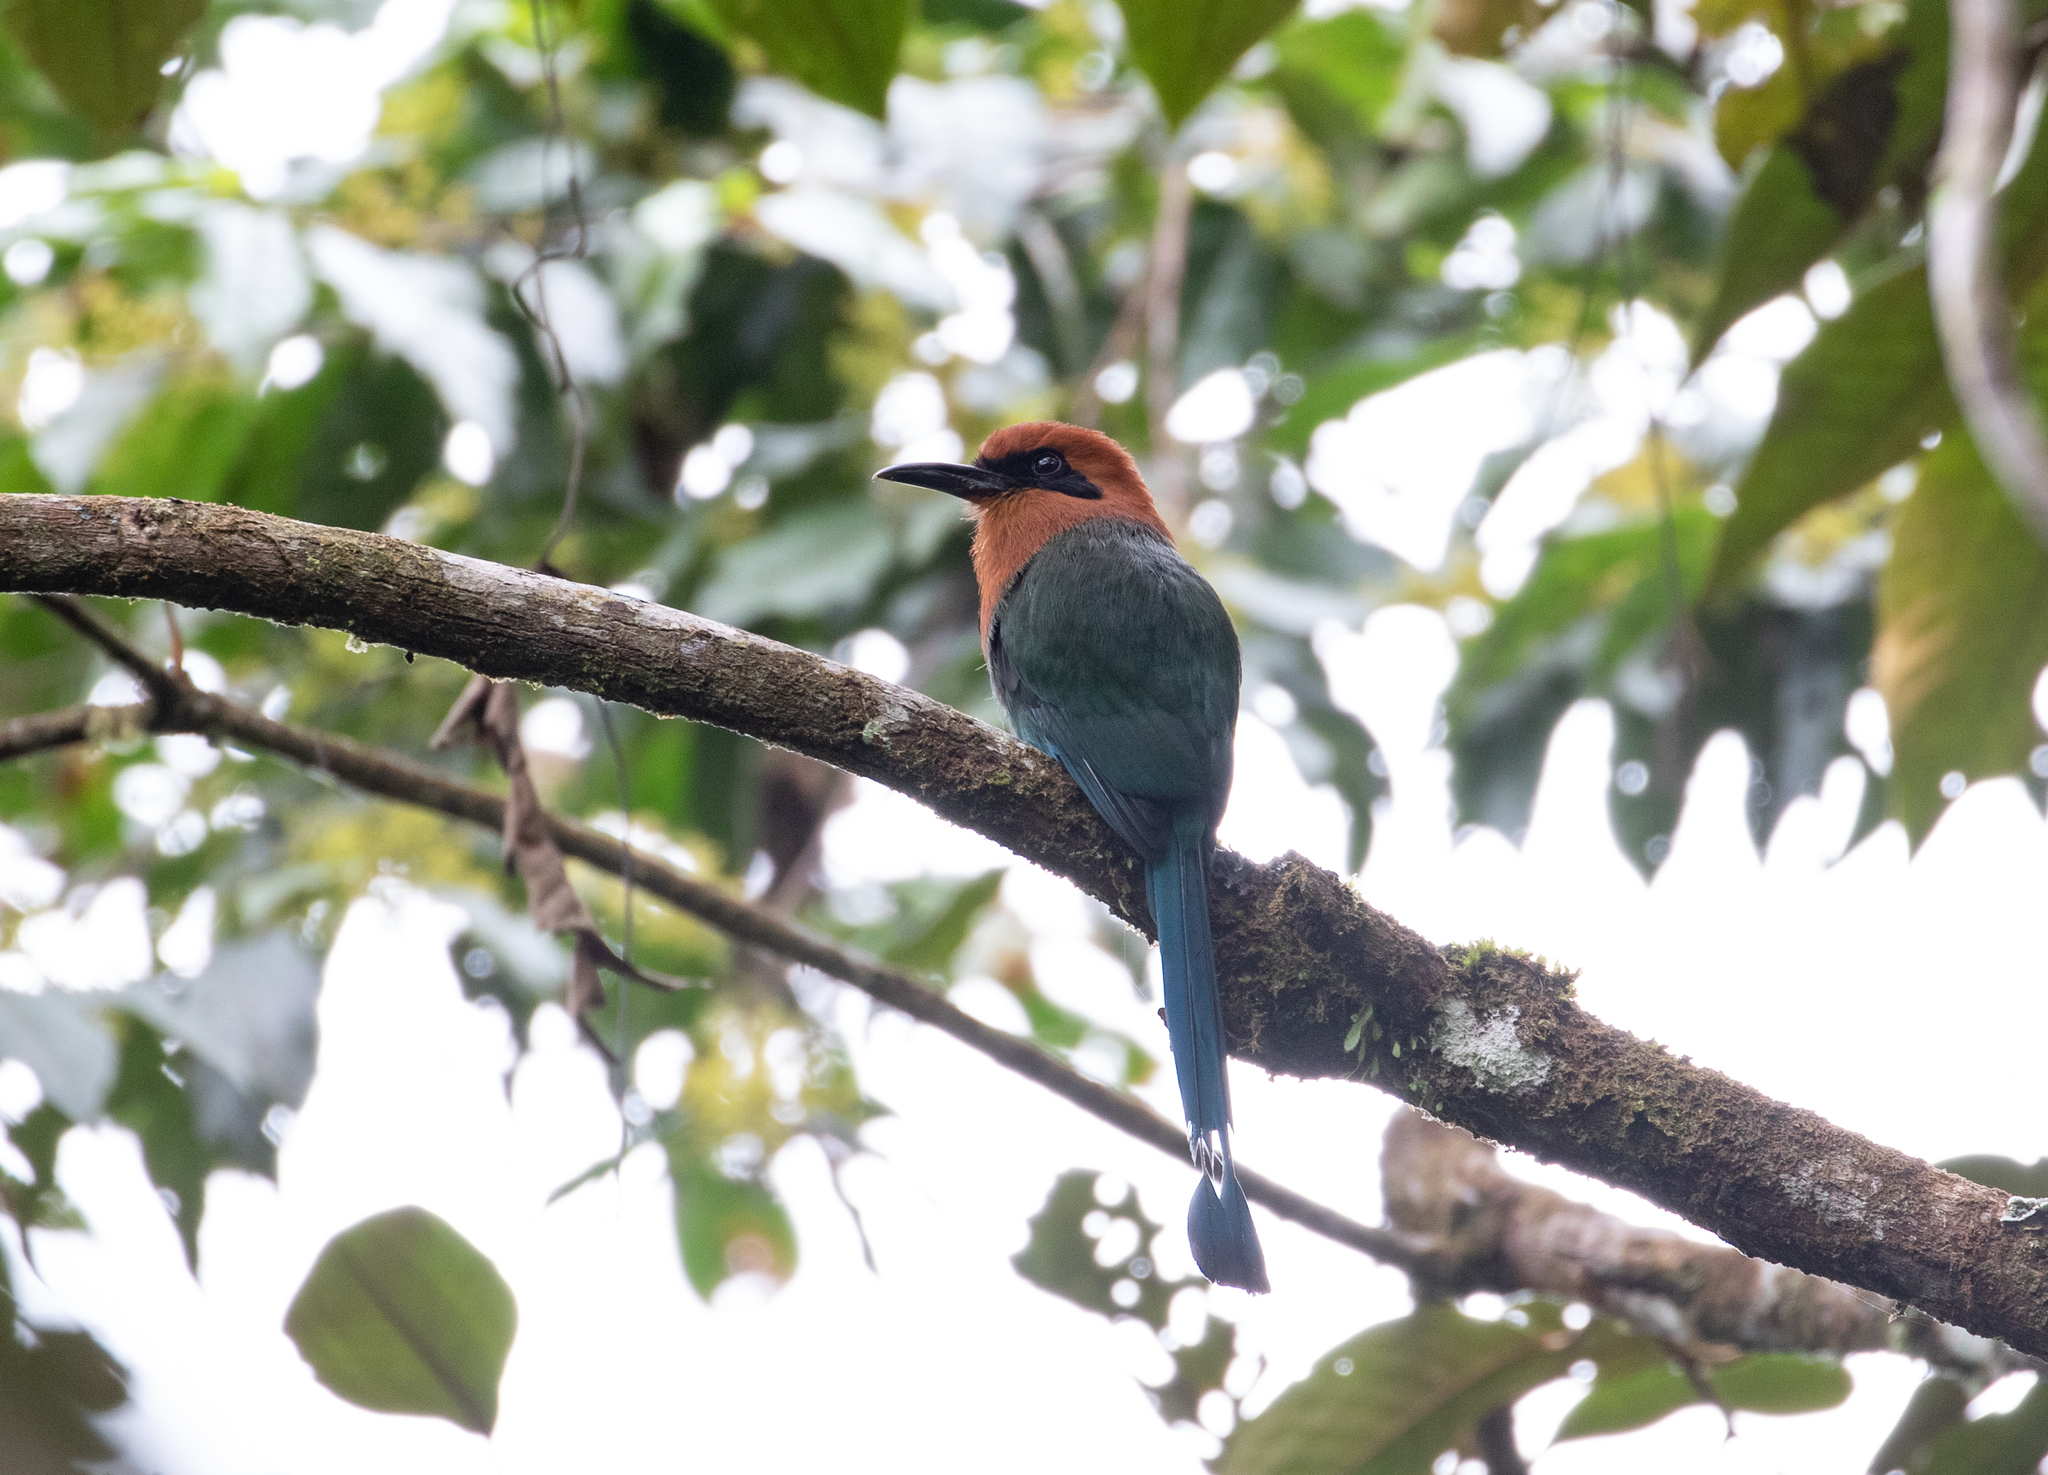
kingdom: Animalia
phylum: Chordata
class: Aves
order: Coraciiformes
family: Momotidae
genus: Electron
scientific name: Electron platyrhynchum
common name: Broad-billed motmot
